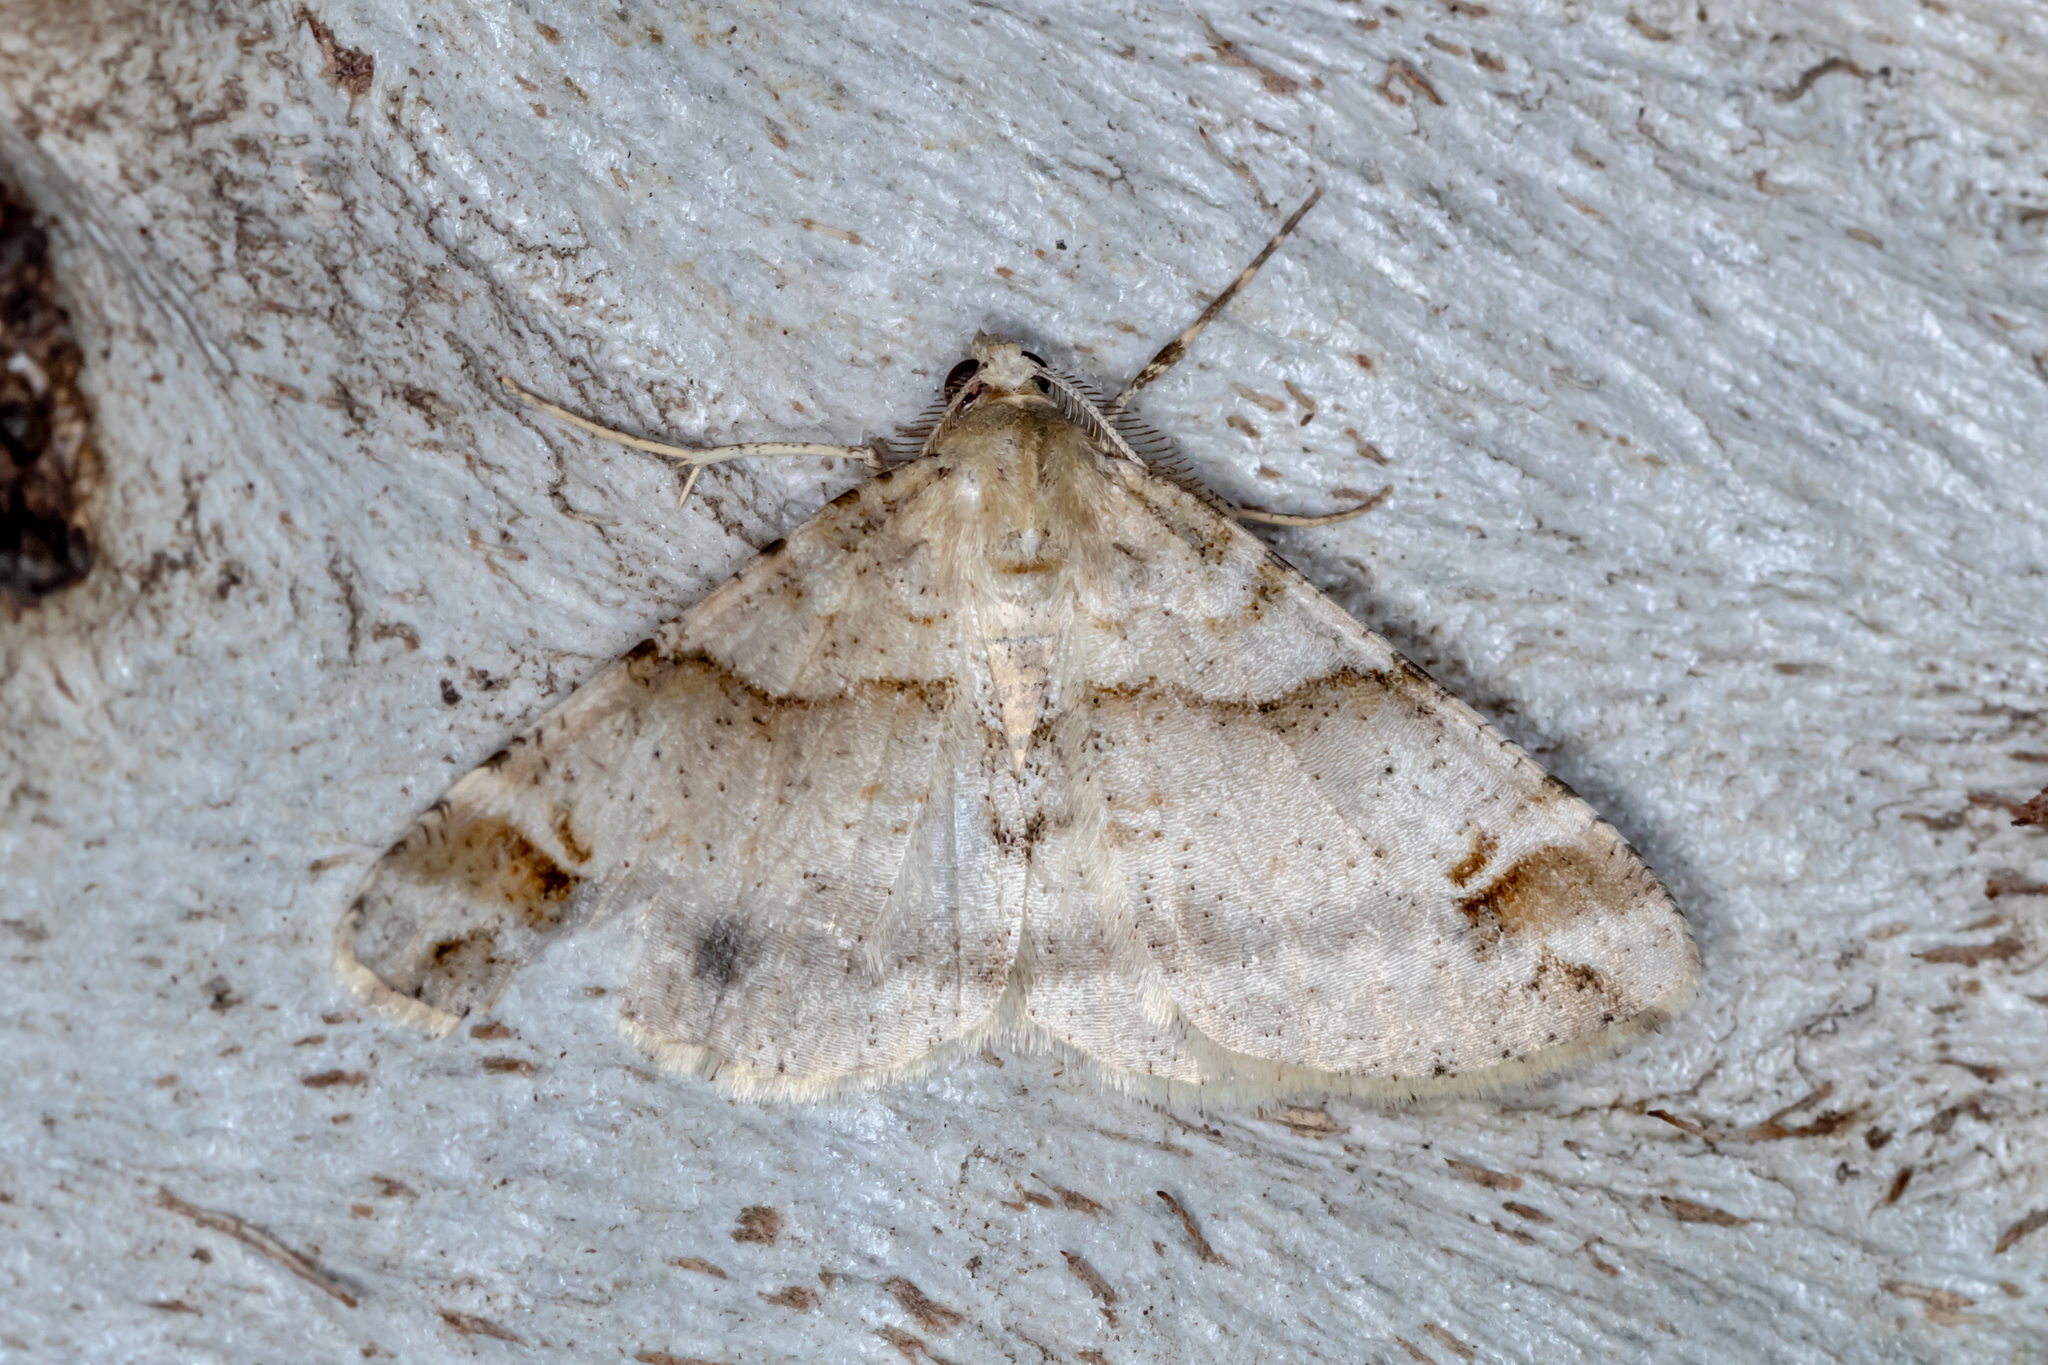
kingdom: Animalia
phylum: Arthropoda
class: Insecta
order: Lepidoptera
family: Geometridae
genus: Syneora
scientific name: Syneora hemeropa
